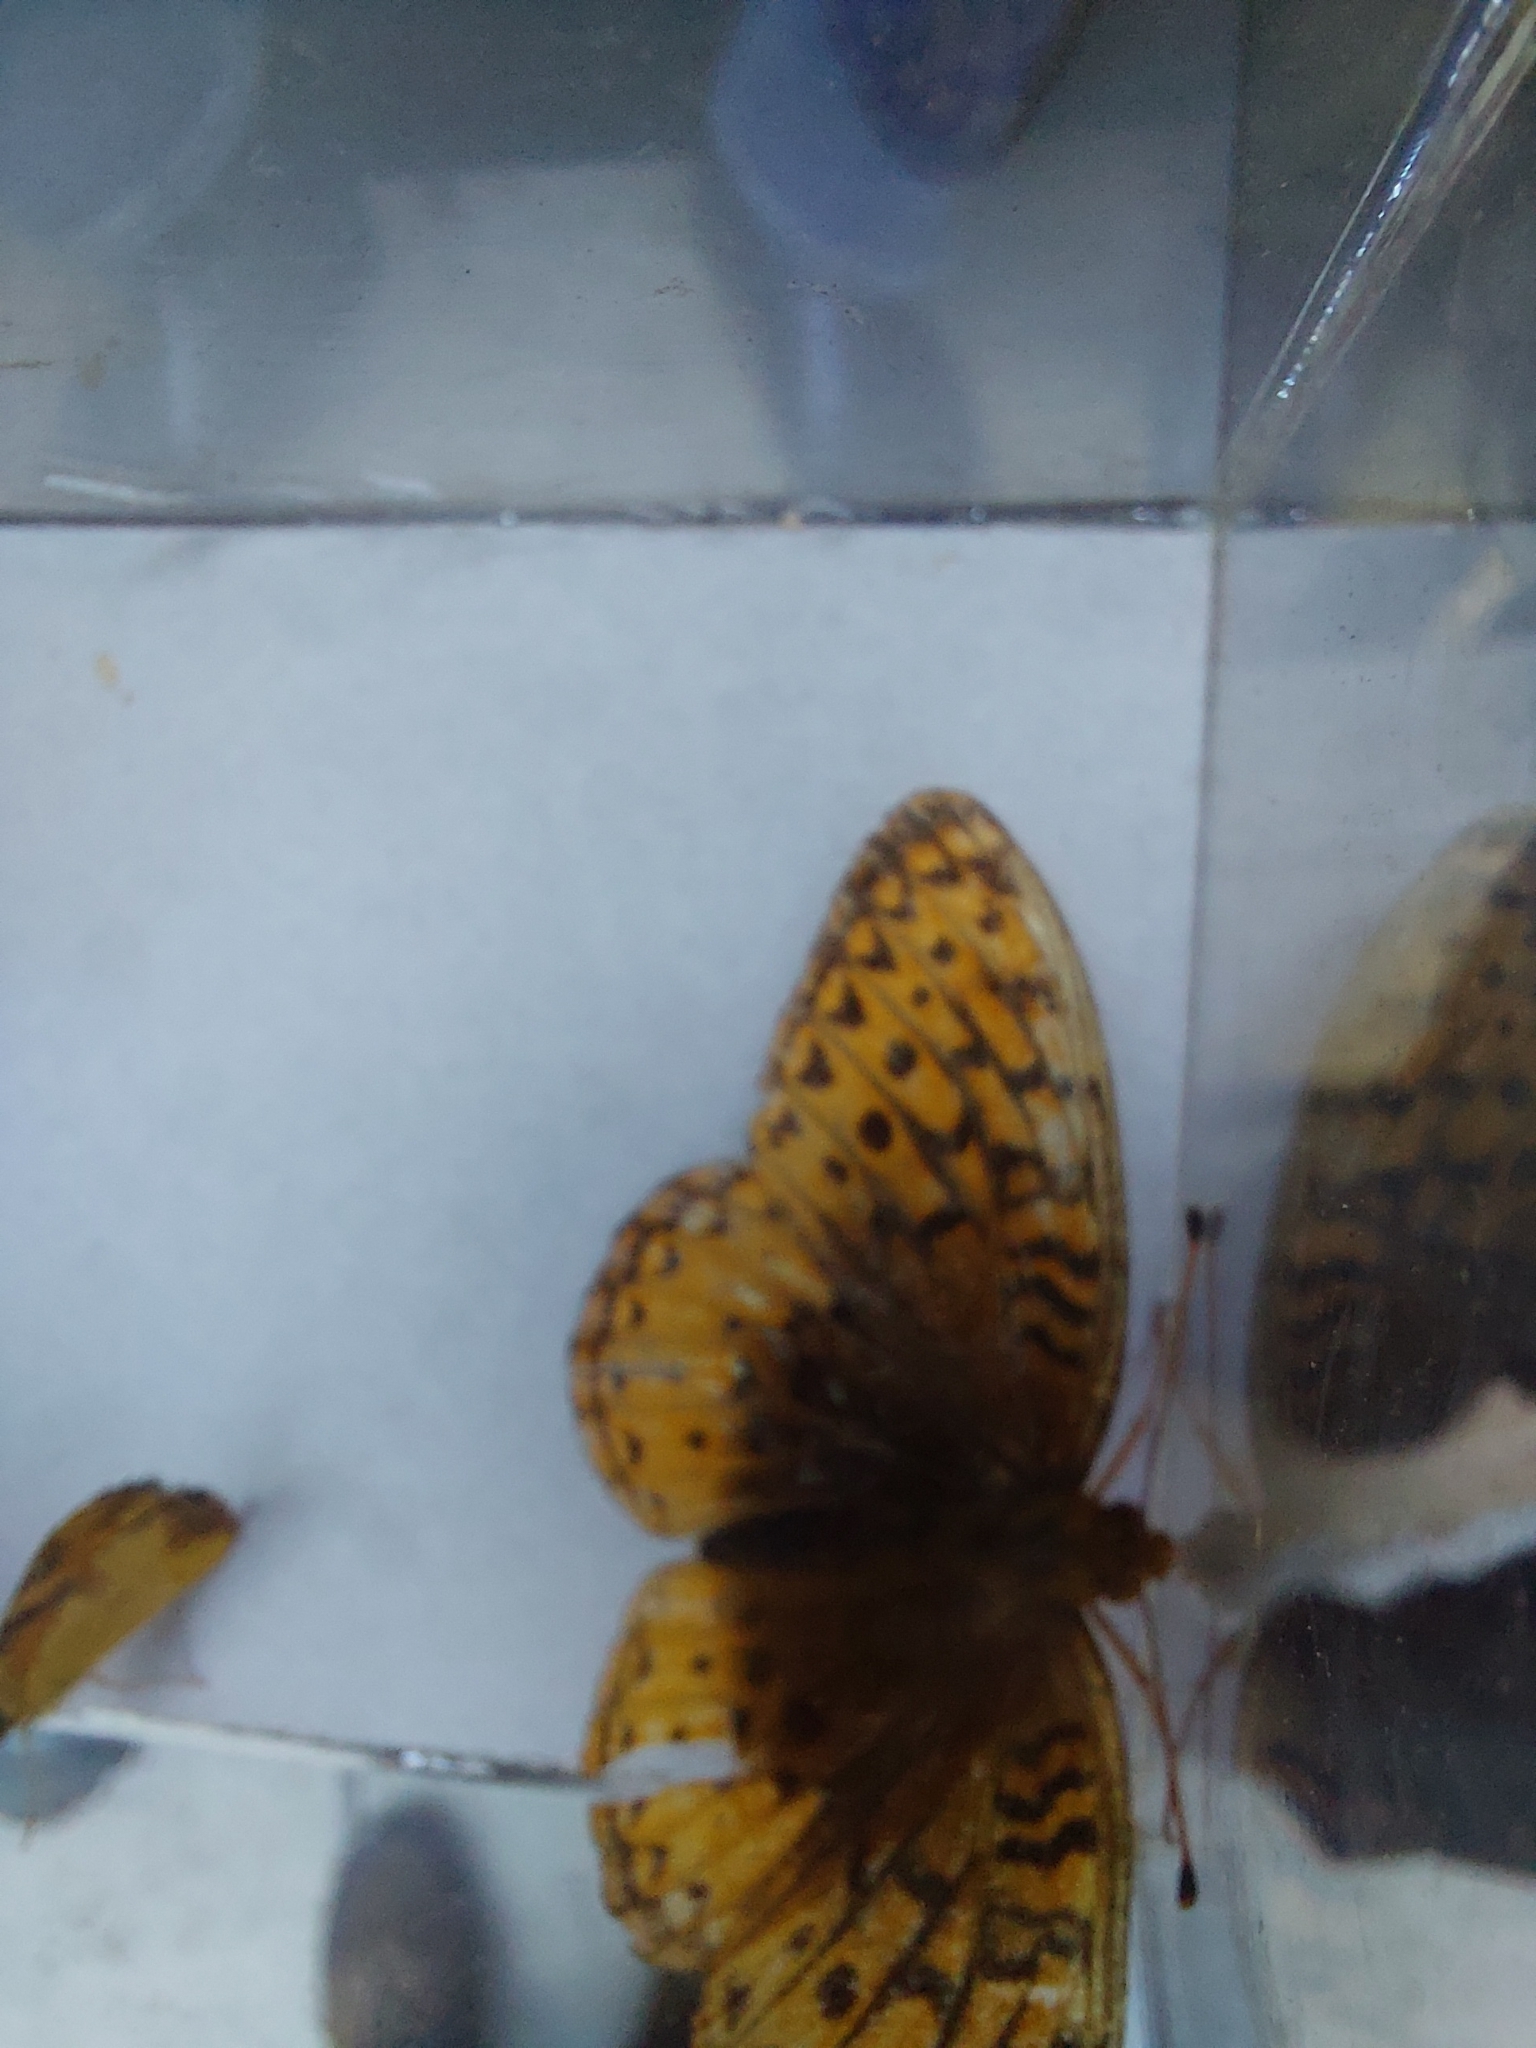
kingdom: Animalia
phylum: Arthropoda
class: Insecta
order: Lepidoptera
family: Nymphalidae
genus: Speyeria
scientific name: Speyeria cybele
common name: Great spangled fritillary
